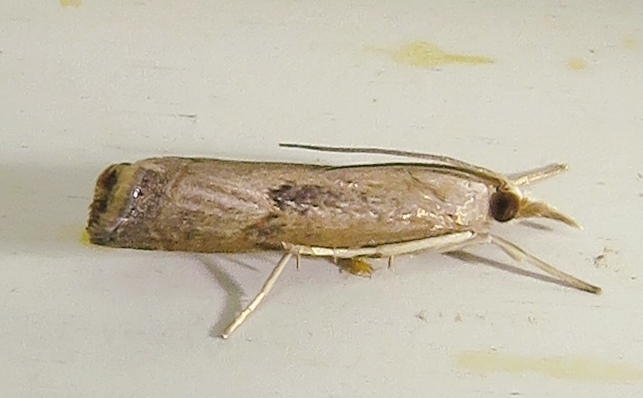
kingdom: Animalia
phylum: Arthropoda
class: Insecta
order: Lepidoptera
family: Crambidae
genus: Parapediasia
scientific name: Parapediasia teterellus
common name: Bluegrass webworm moth
